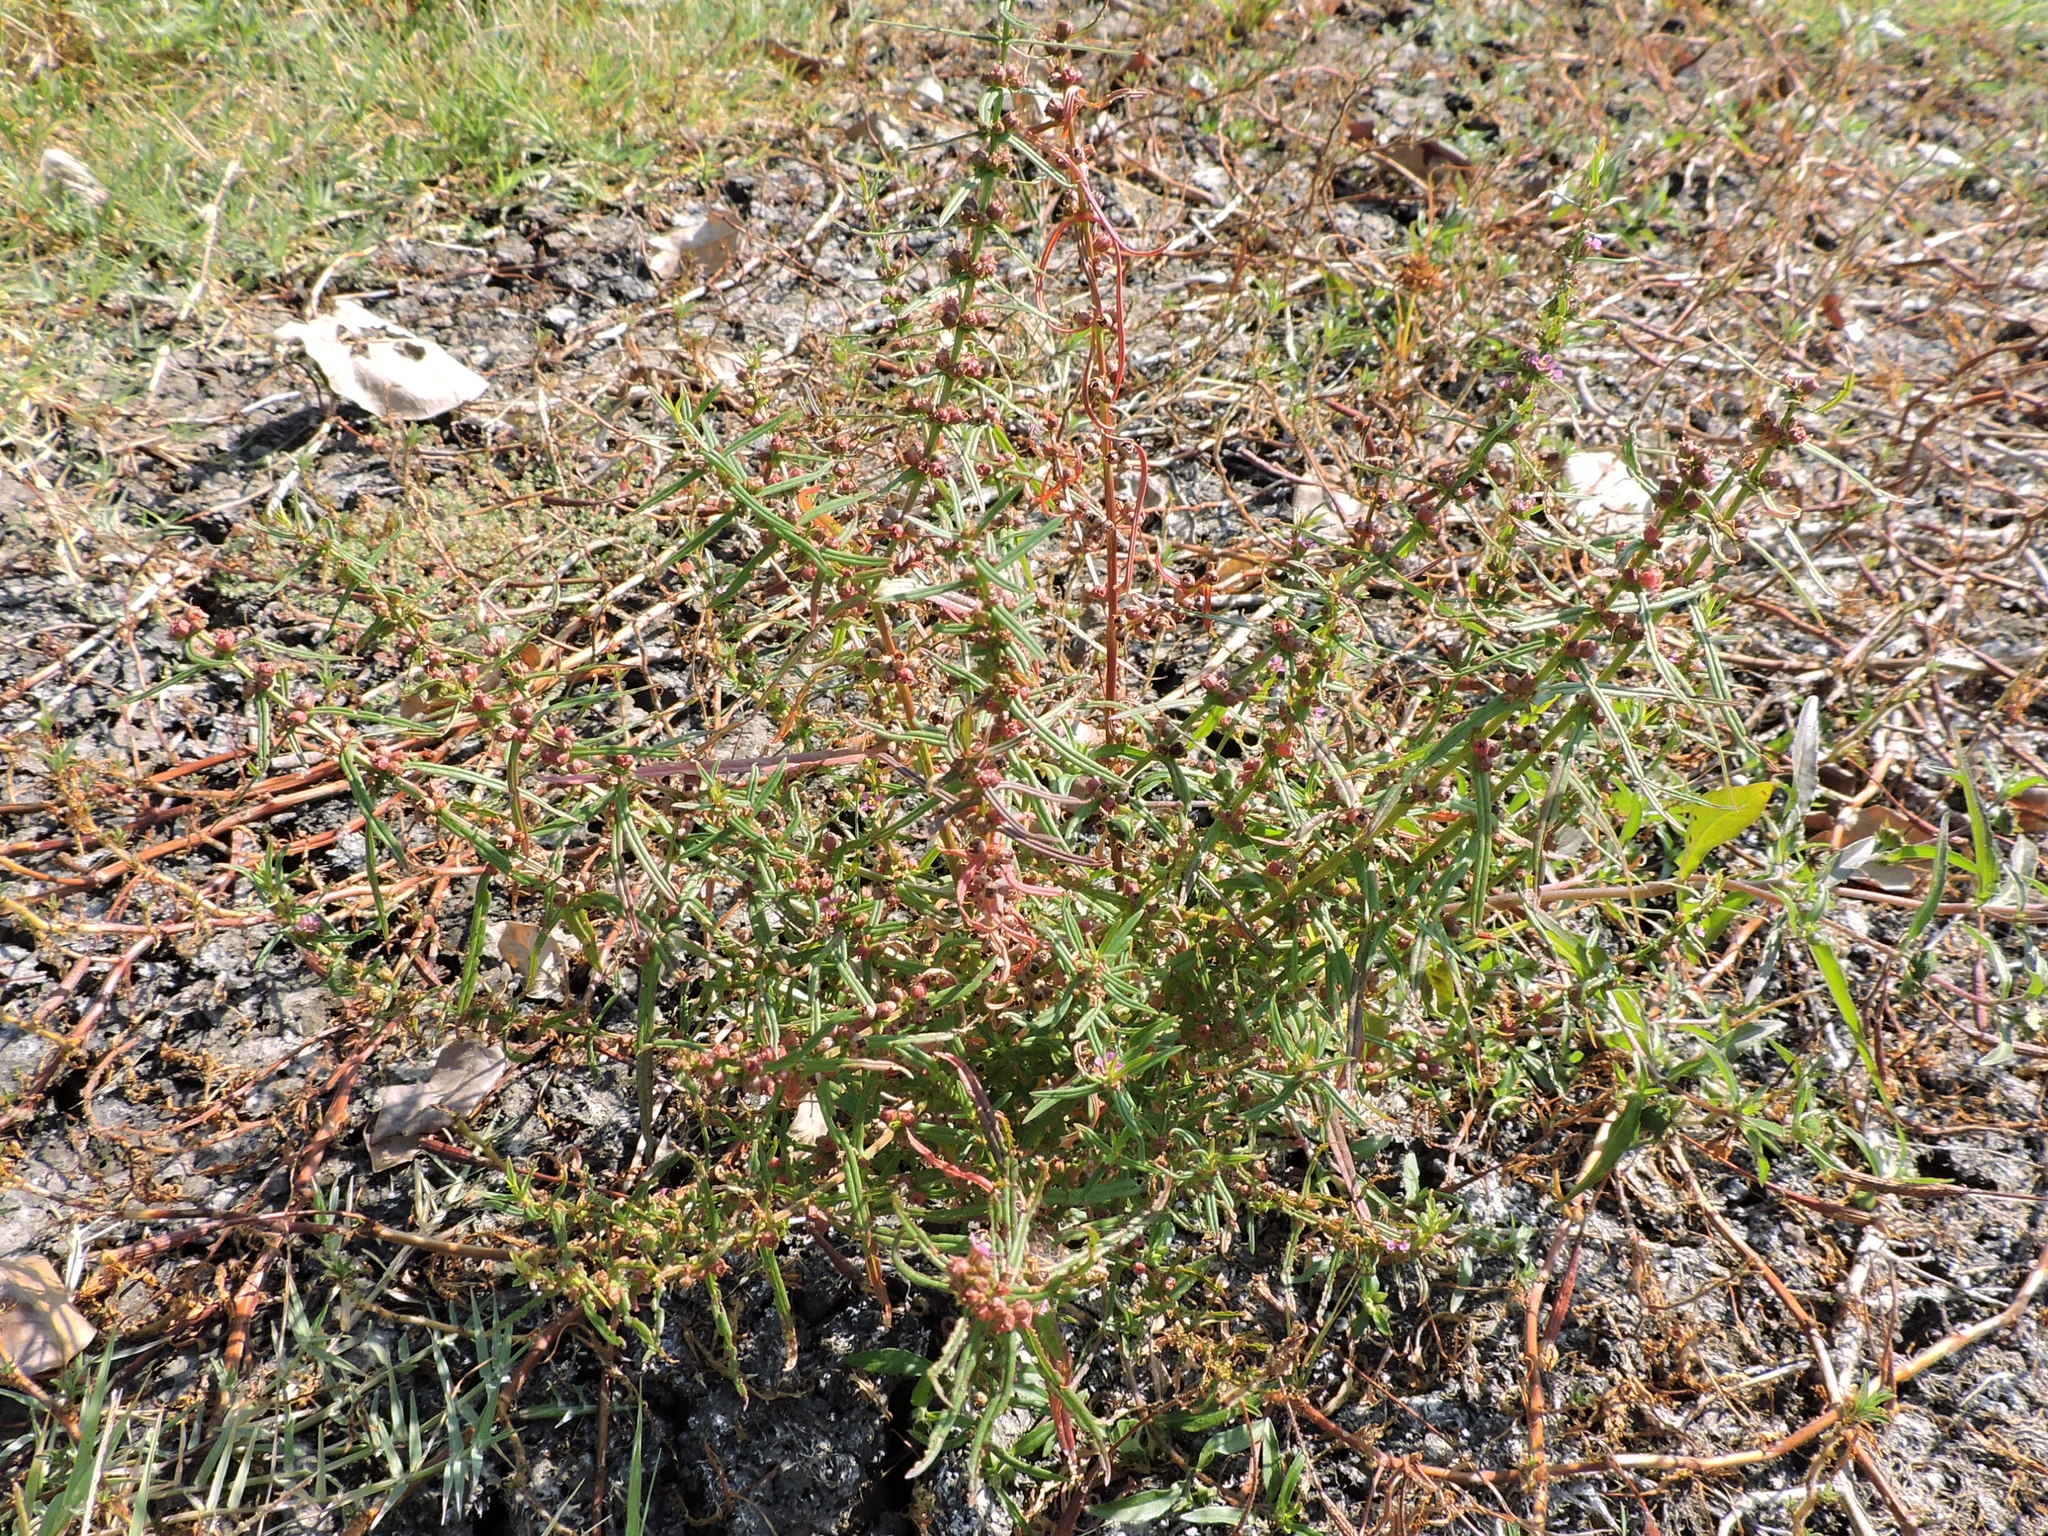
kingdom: Plantae
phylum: Tracheophyta
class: Magnoliopsida
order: Myrtales
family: Lythraceae
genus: Ammannia
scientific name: Ammannia coccinea
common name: Valley redstem
